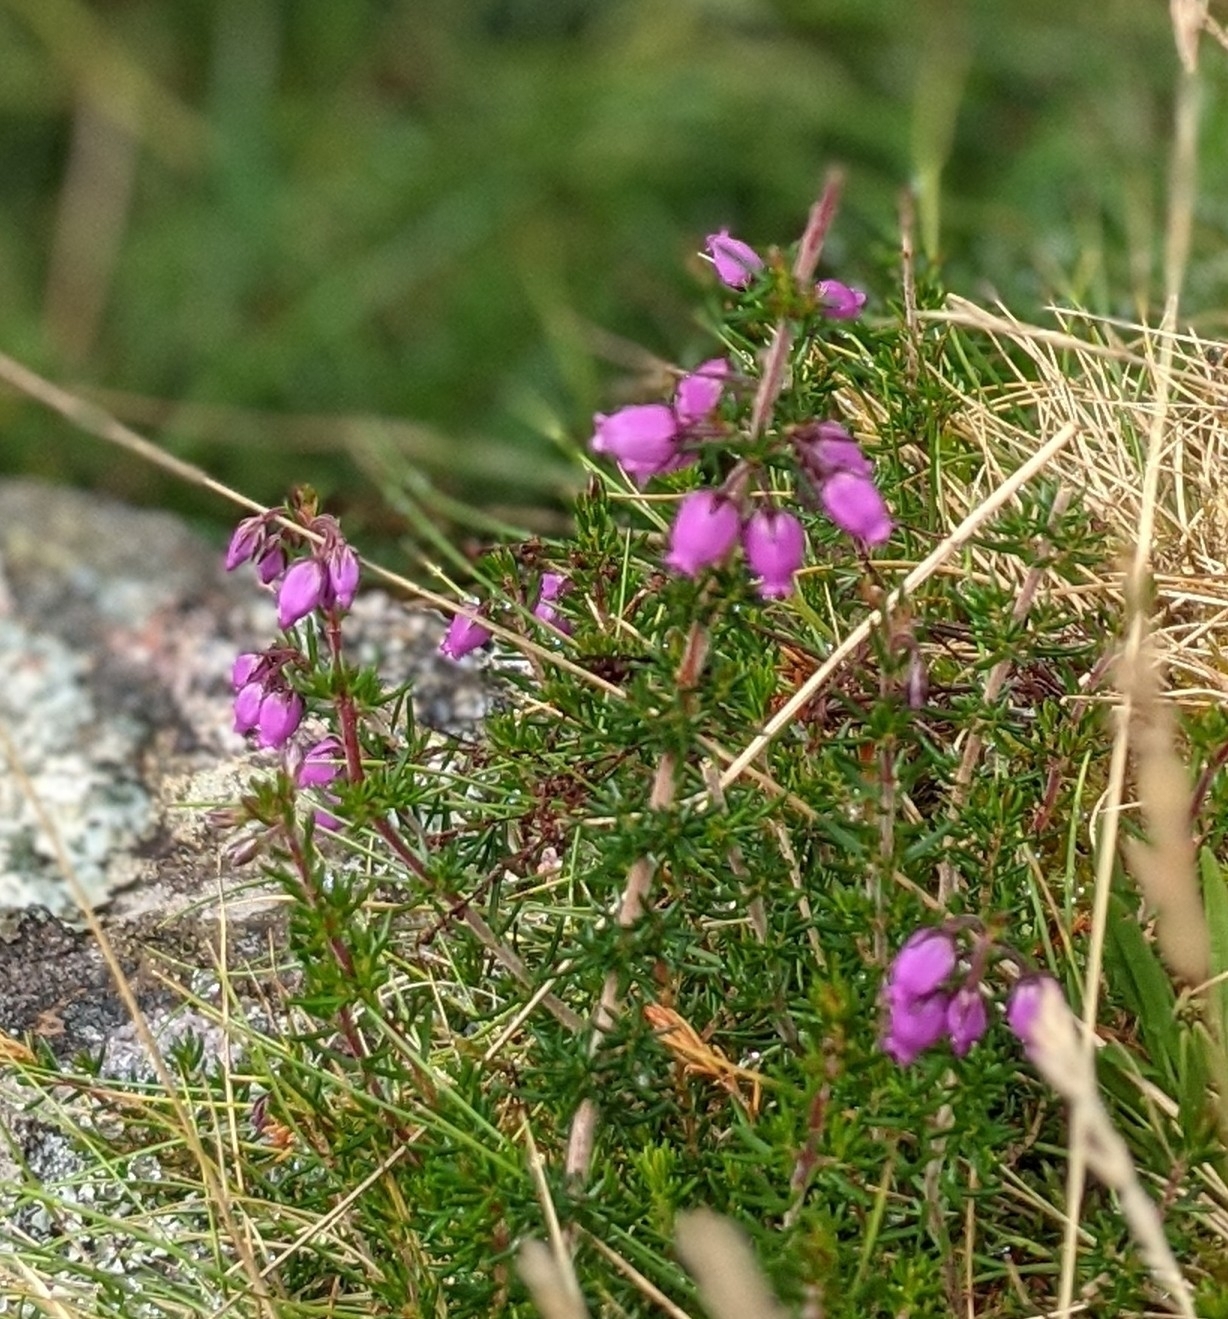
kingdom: Plantae
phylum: Tracheophyta
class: Magnoliopsida
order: Ericales
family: Ericaceae
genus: Erica
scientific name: Erica cinerea
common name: Bell heather
